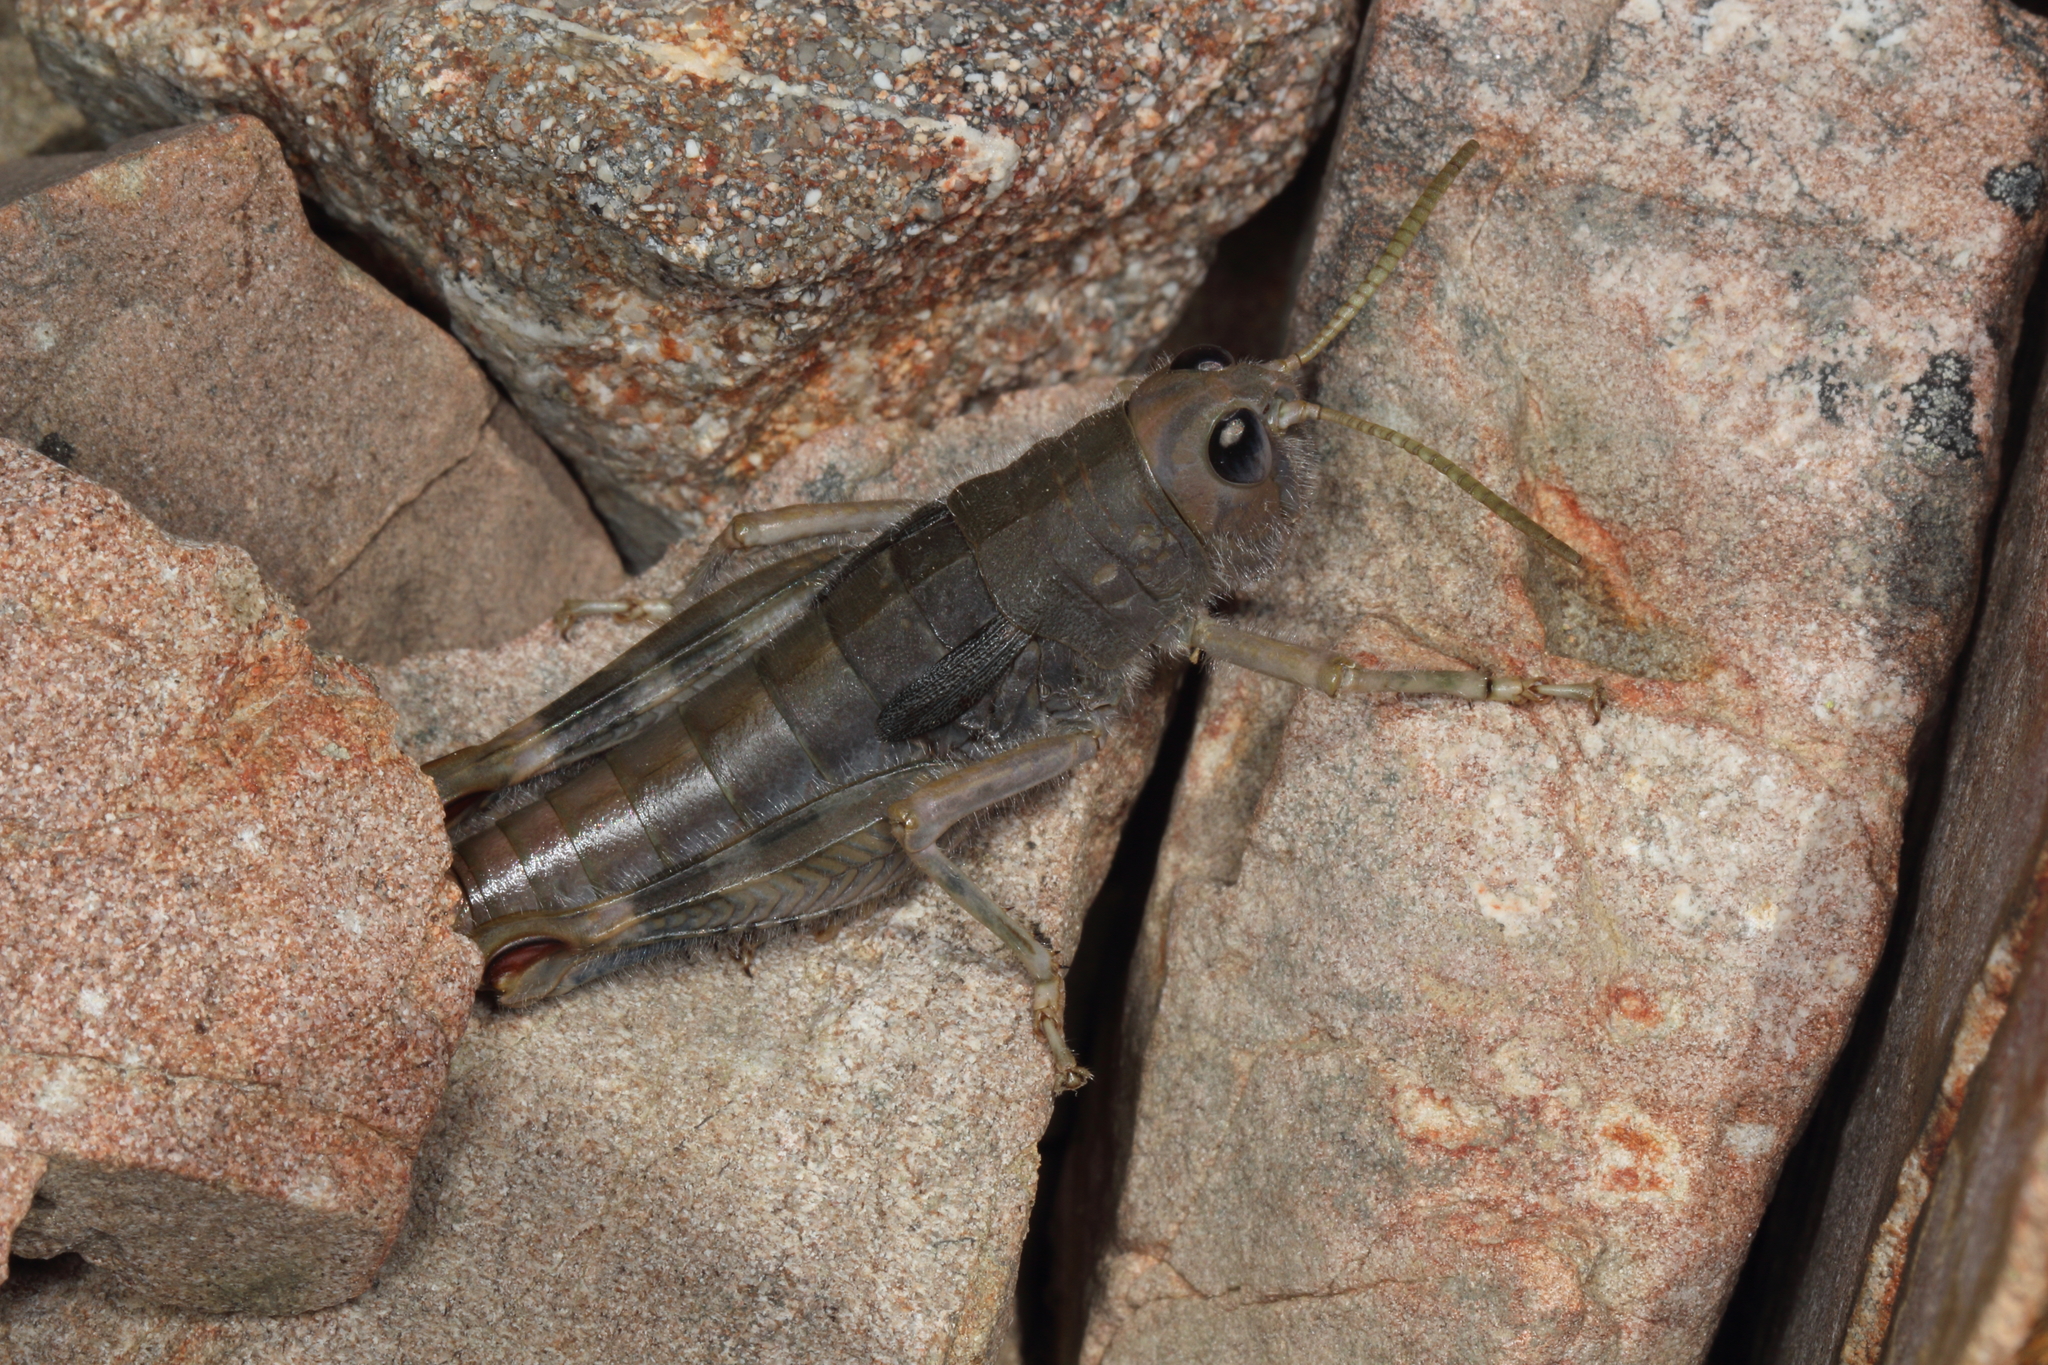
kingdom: Animalia
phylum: Arthropoda
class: Insecta
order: Orthoptera
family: Acrididae
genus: Sigaus
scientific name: Sigaus villosus
